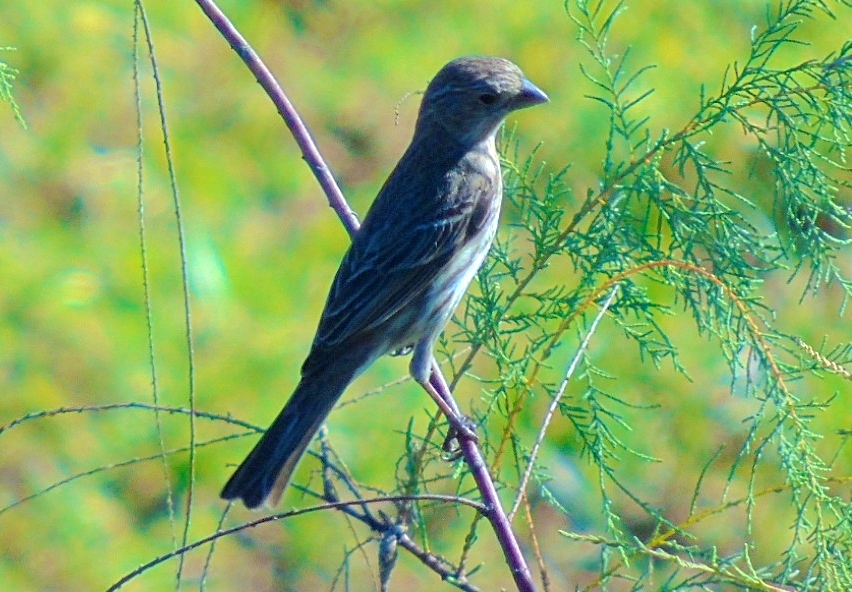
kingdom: Animalia
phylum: Chordata
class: Aves
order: Passeriformes
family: Fringillidae
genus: Haemorhous
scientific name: Haemorhous mexicanus
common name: House finch
